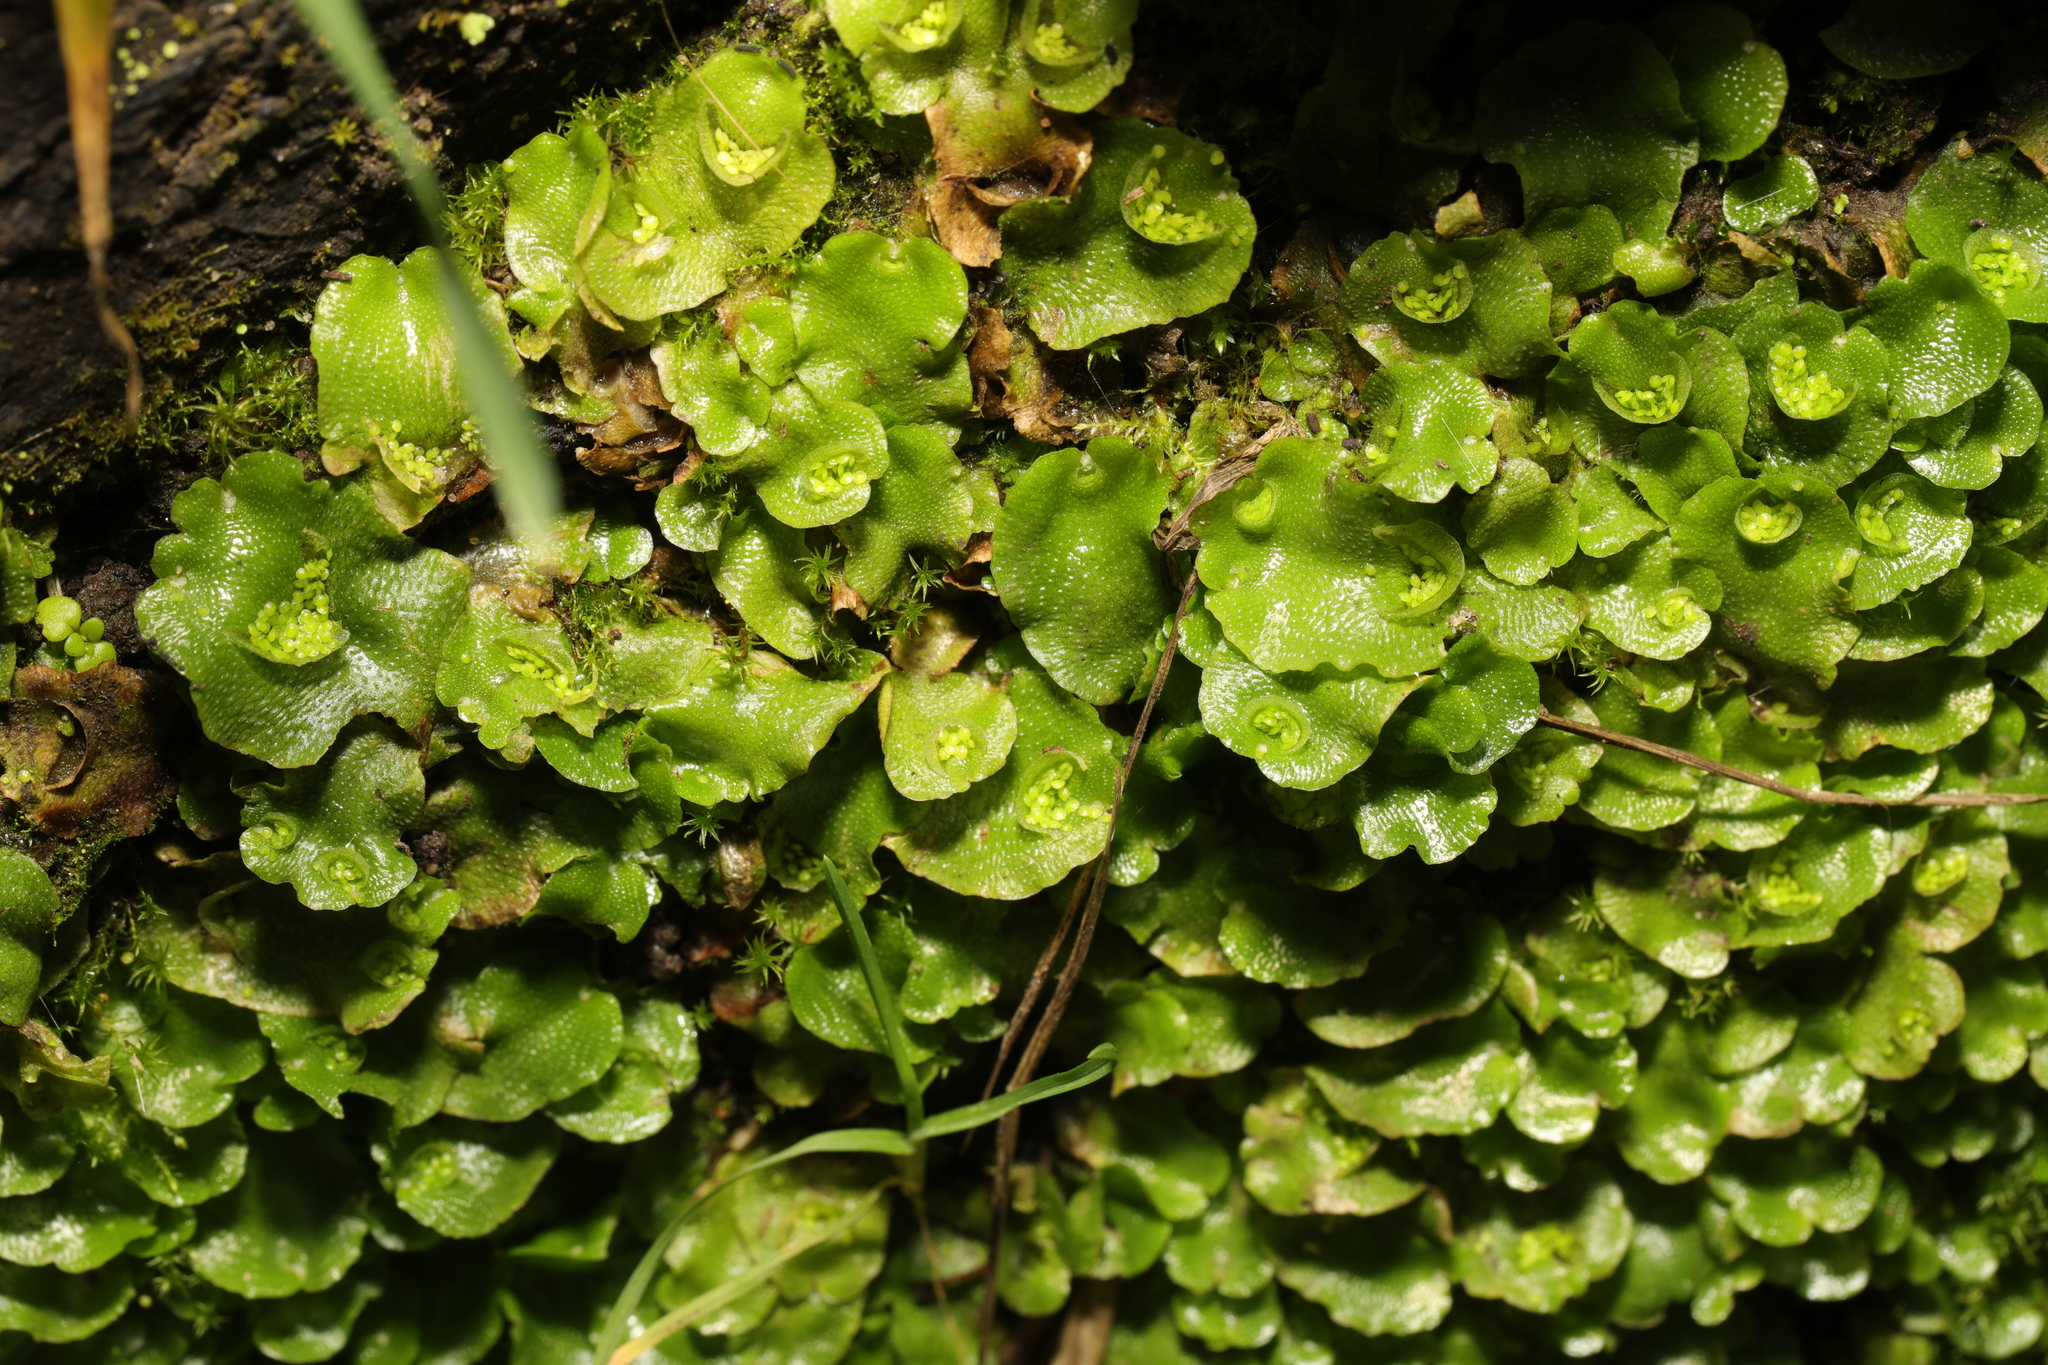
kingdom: Plantae
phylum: Marchantiophyta
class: Marchantiopsida
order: Lunulariales
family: Lunulariaceae
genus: Lunularia
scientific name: Lunularia cruciata
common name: Crescent-cup liverwort
